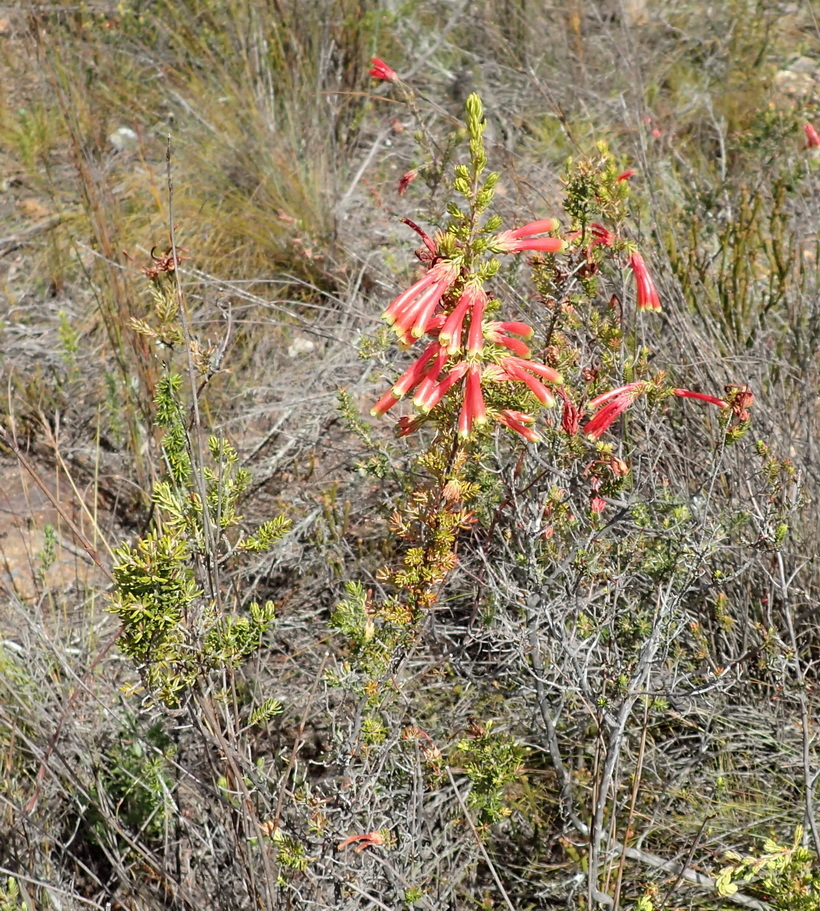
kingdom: Plantae
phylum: Tracheophyta
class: Magnoliopsida
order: Ericales
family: Ericaceae
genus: Erica
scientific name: Erica discolor
